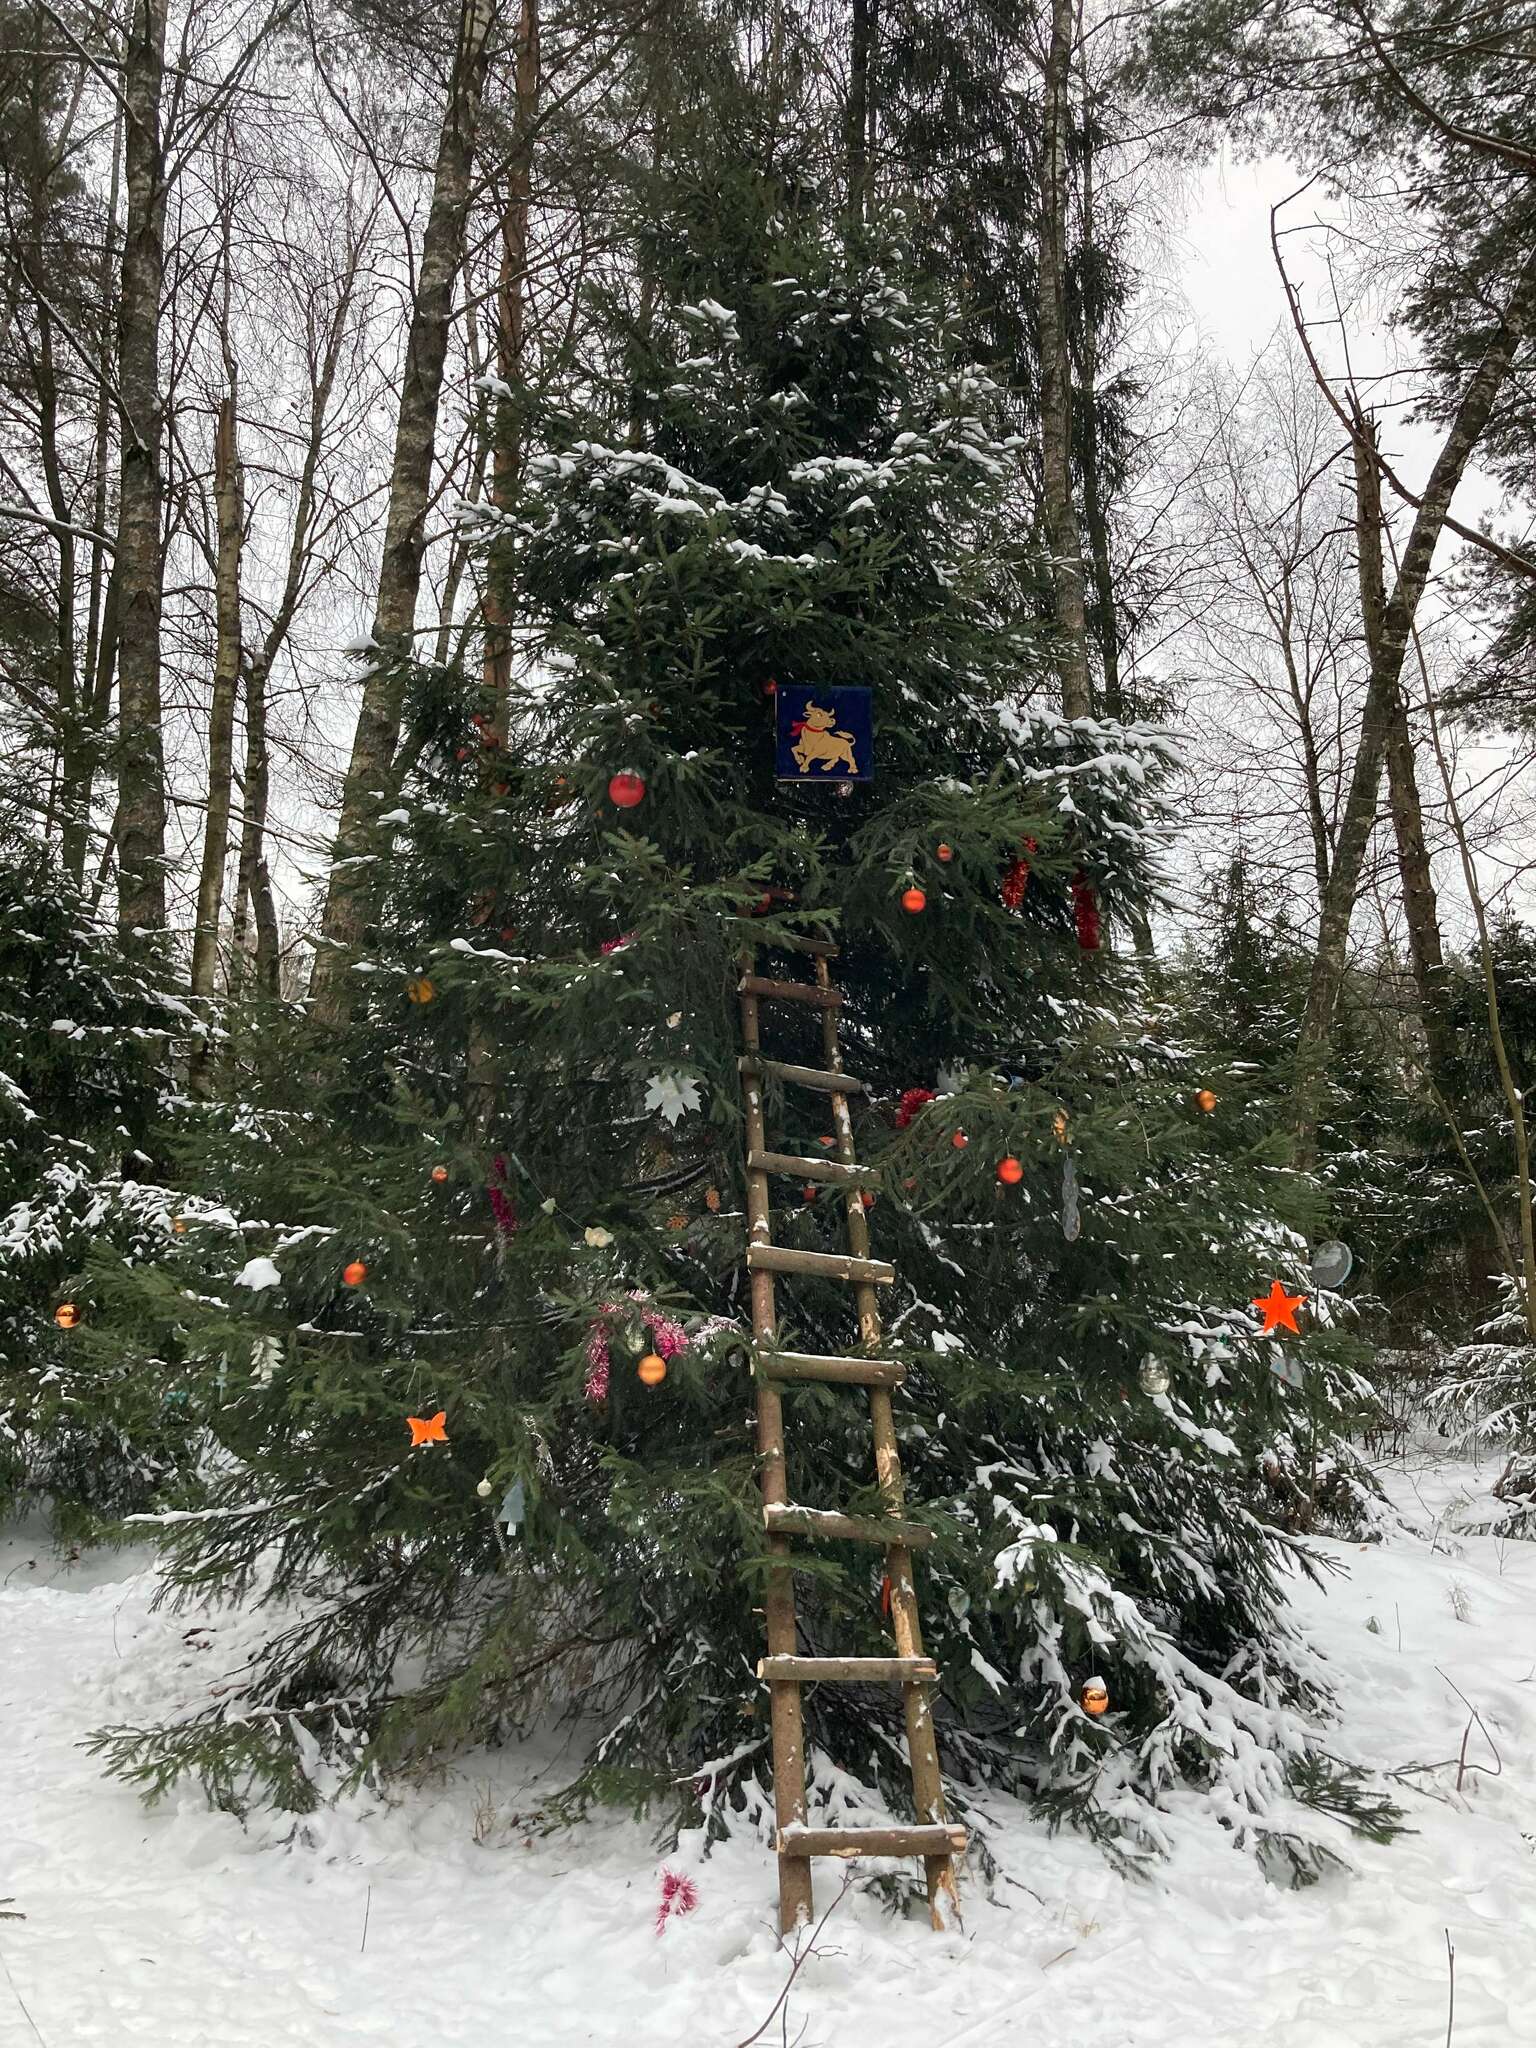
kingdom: Plantae
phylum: Tracheophyta
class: Pinopsida
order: Pinales
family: Pinaceae
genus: Picea
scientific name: Picea abies
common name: Norway spruce
